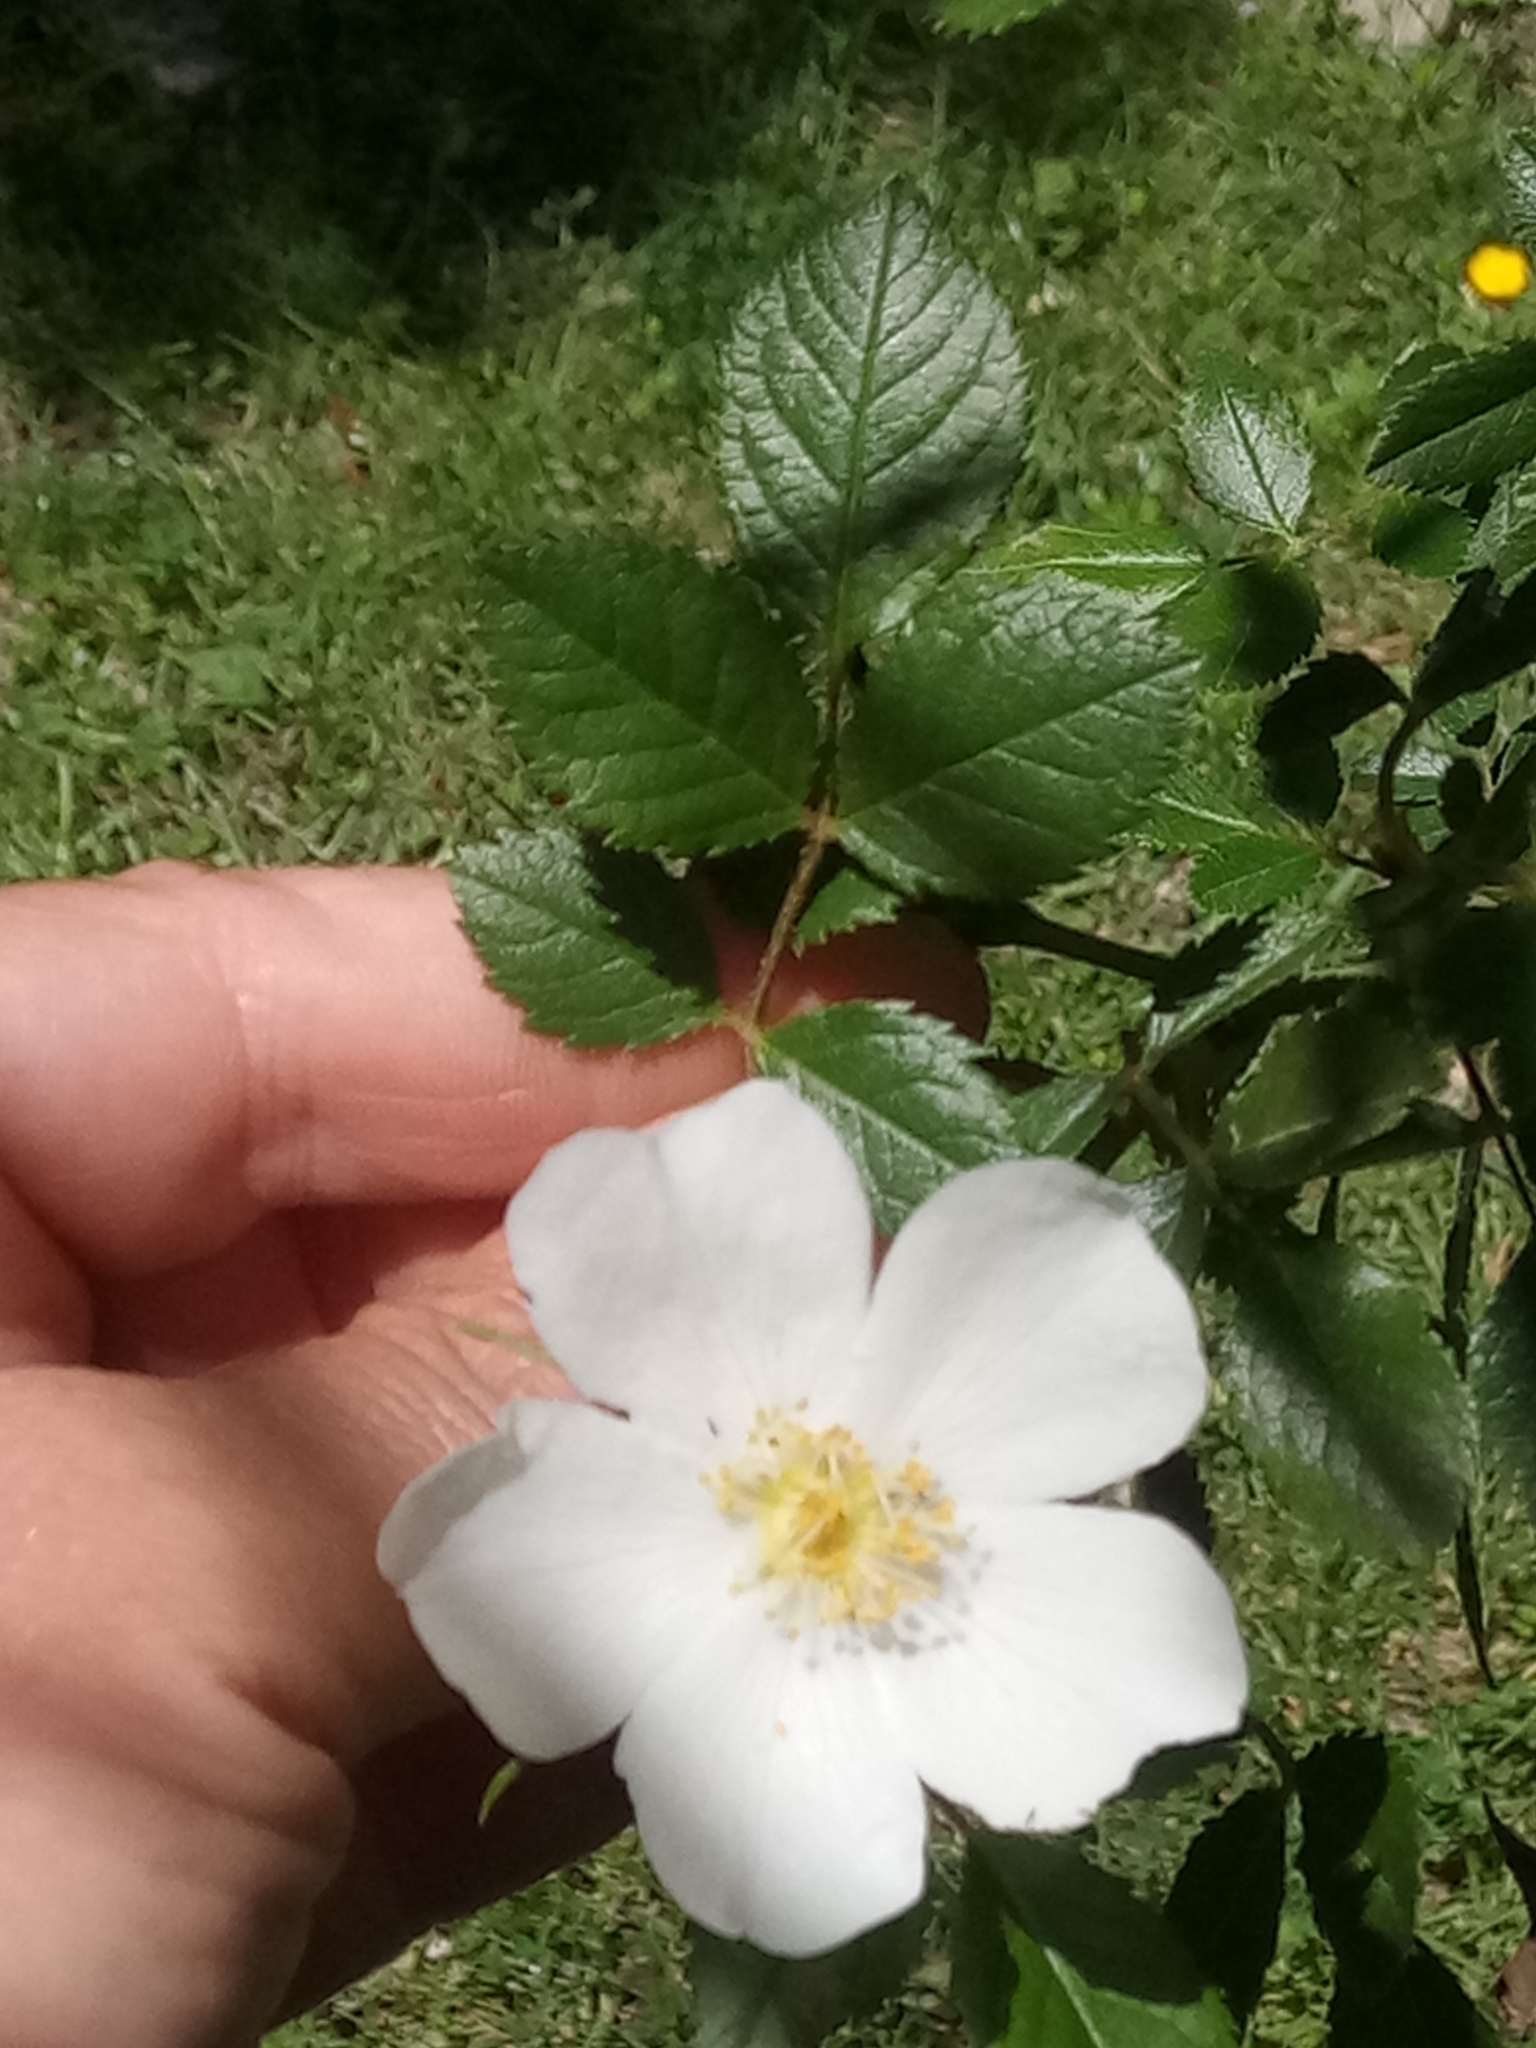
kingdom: Plantae
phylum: Tracheophyta
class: Magnoliopsida
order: Rosales
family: Rosaceae
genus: Rosa
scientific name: Rosa agrestis
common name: Fieldbriar
